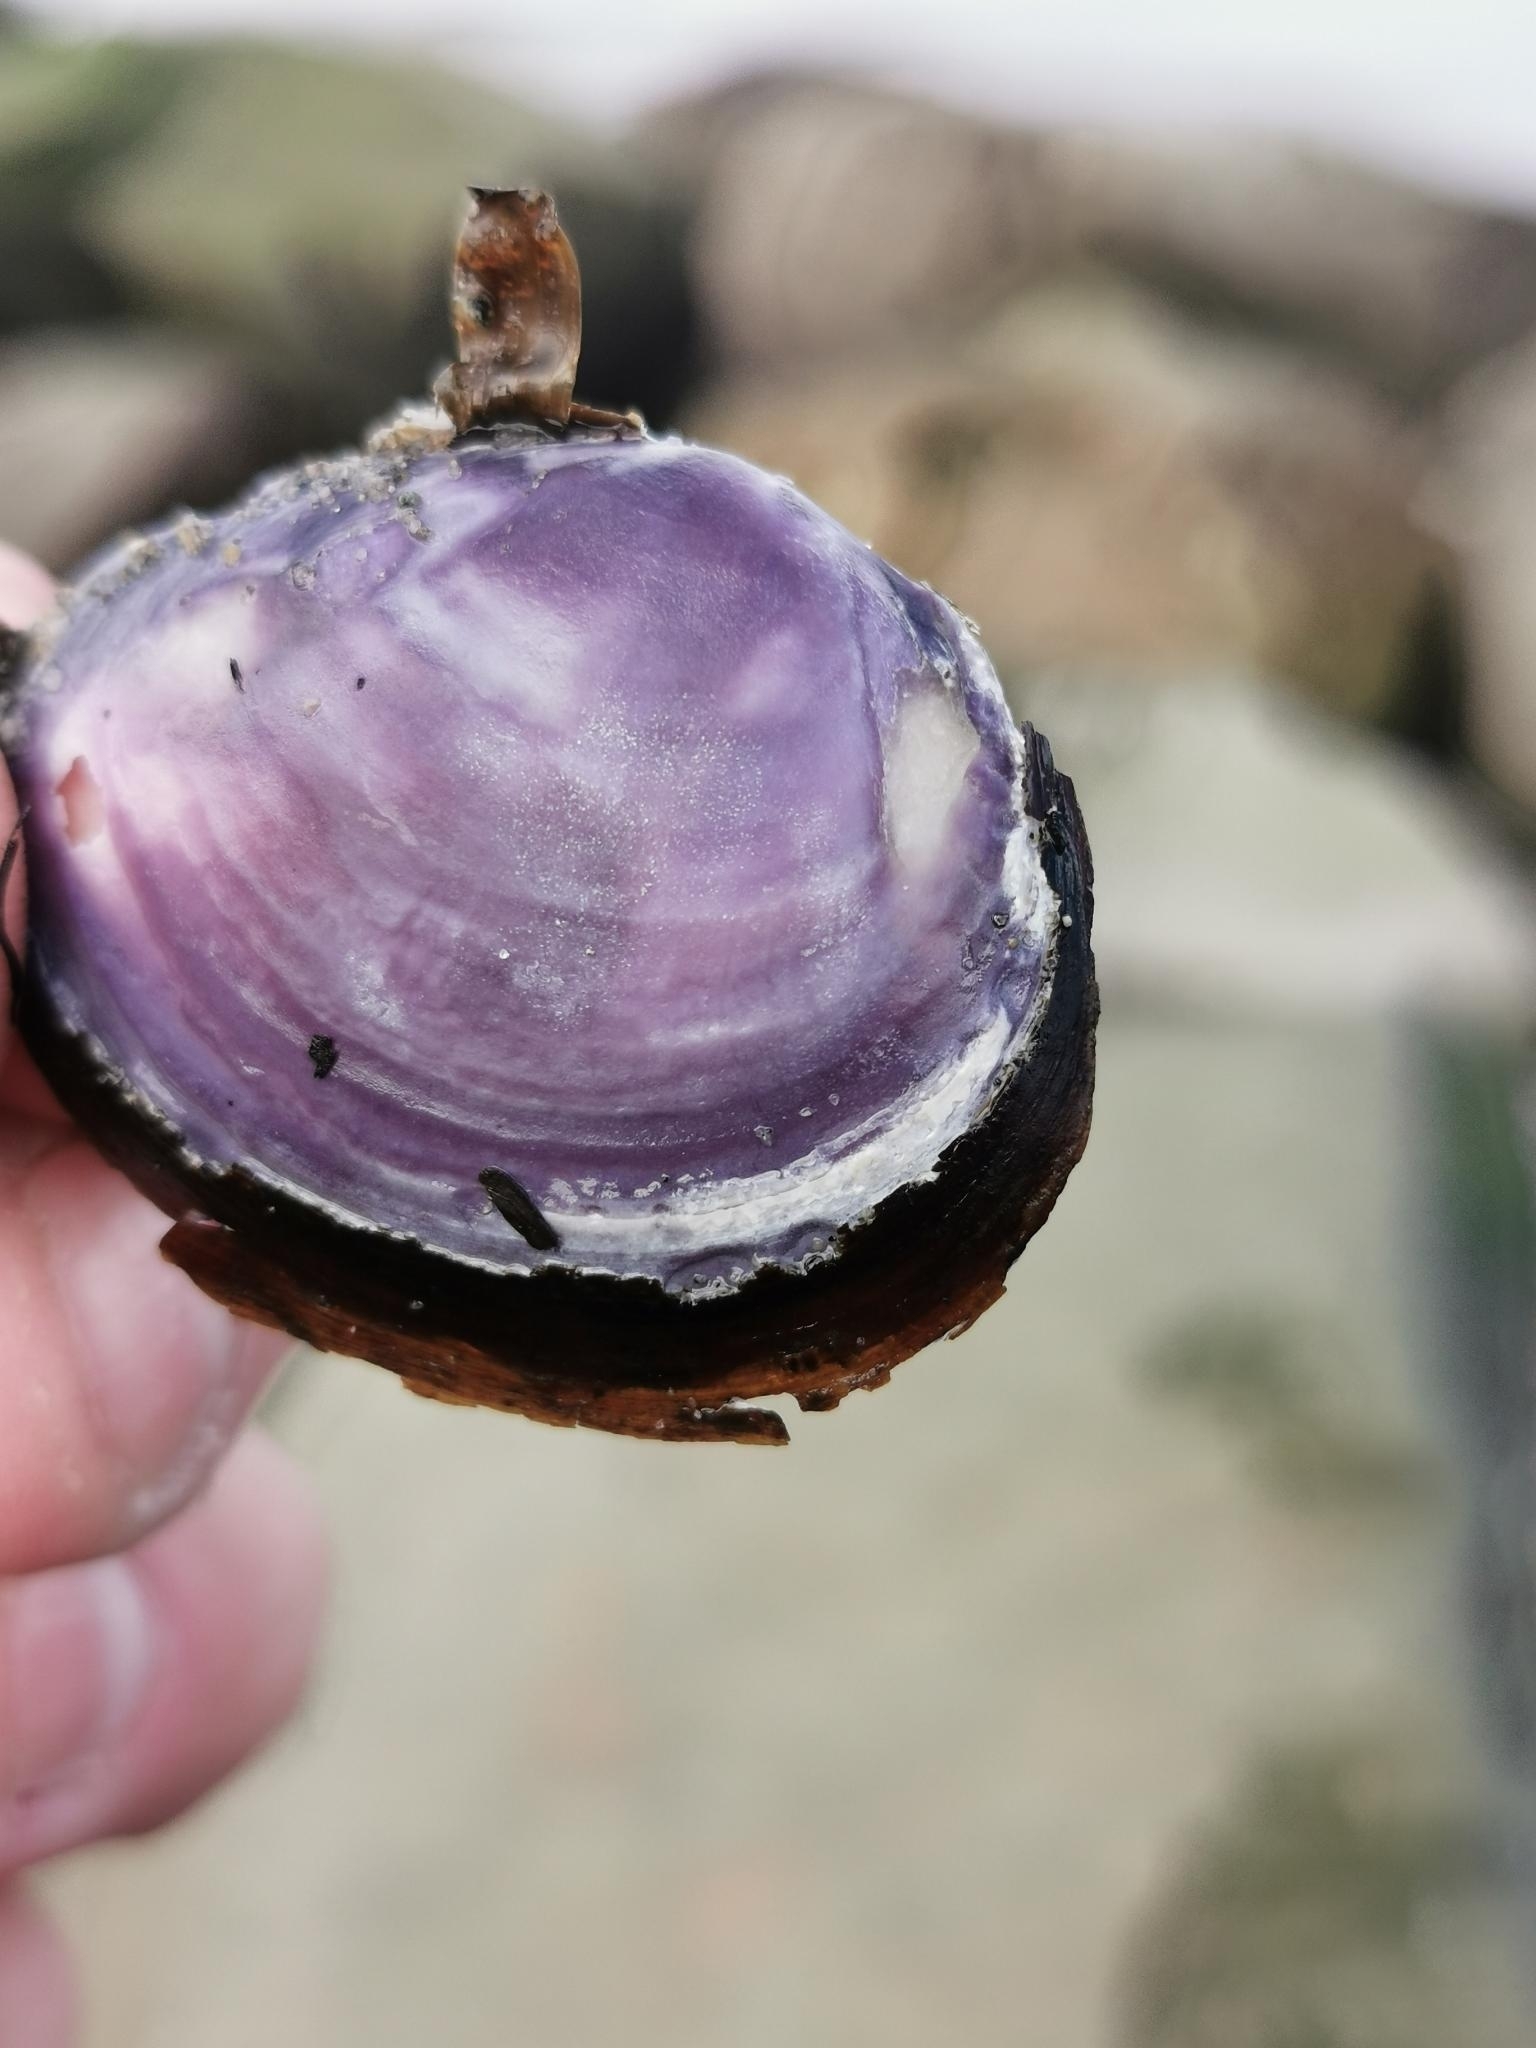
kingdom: Animalia
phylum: Mollusca
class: Bivalvia
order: Cardiida
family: Psammobiidae
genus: Nuttallia
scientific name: Nuttallia obscurata
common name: Purple mahogany-clam
